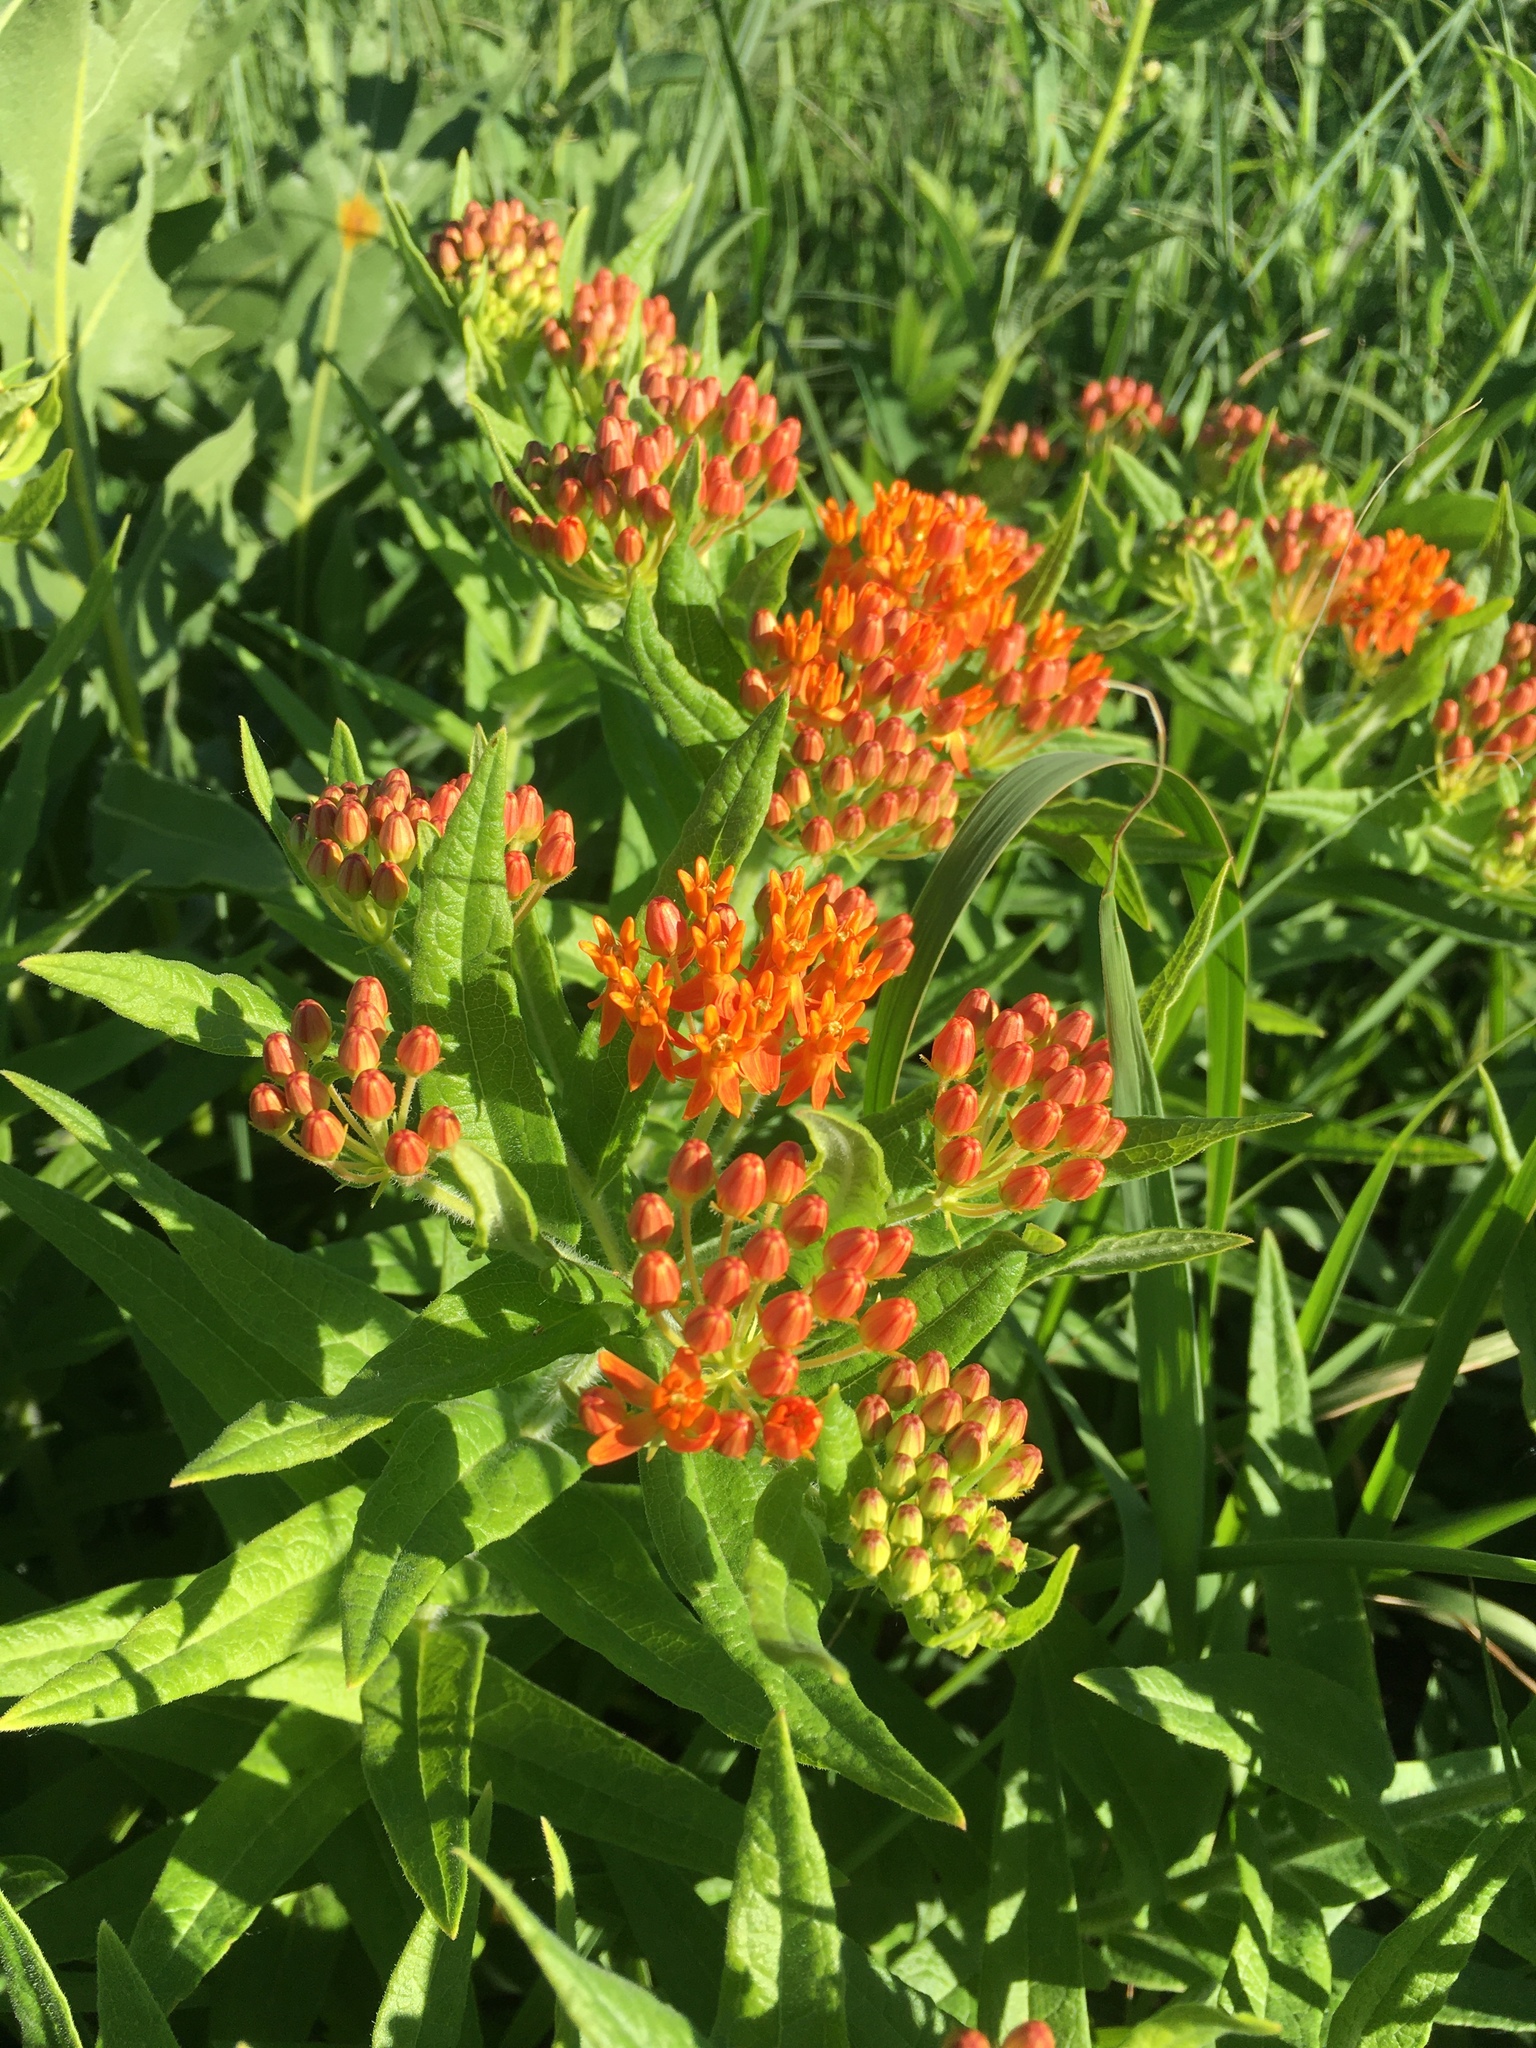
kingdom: Plantae
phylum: Tracheophyta
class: Magnoliopsida
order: Gentianales
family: Apocynaceae
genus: Asclepias
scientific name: Asclepias tuberosa
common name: Butterfly milkweed
